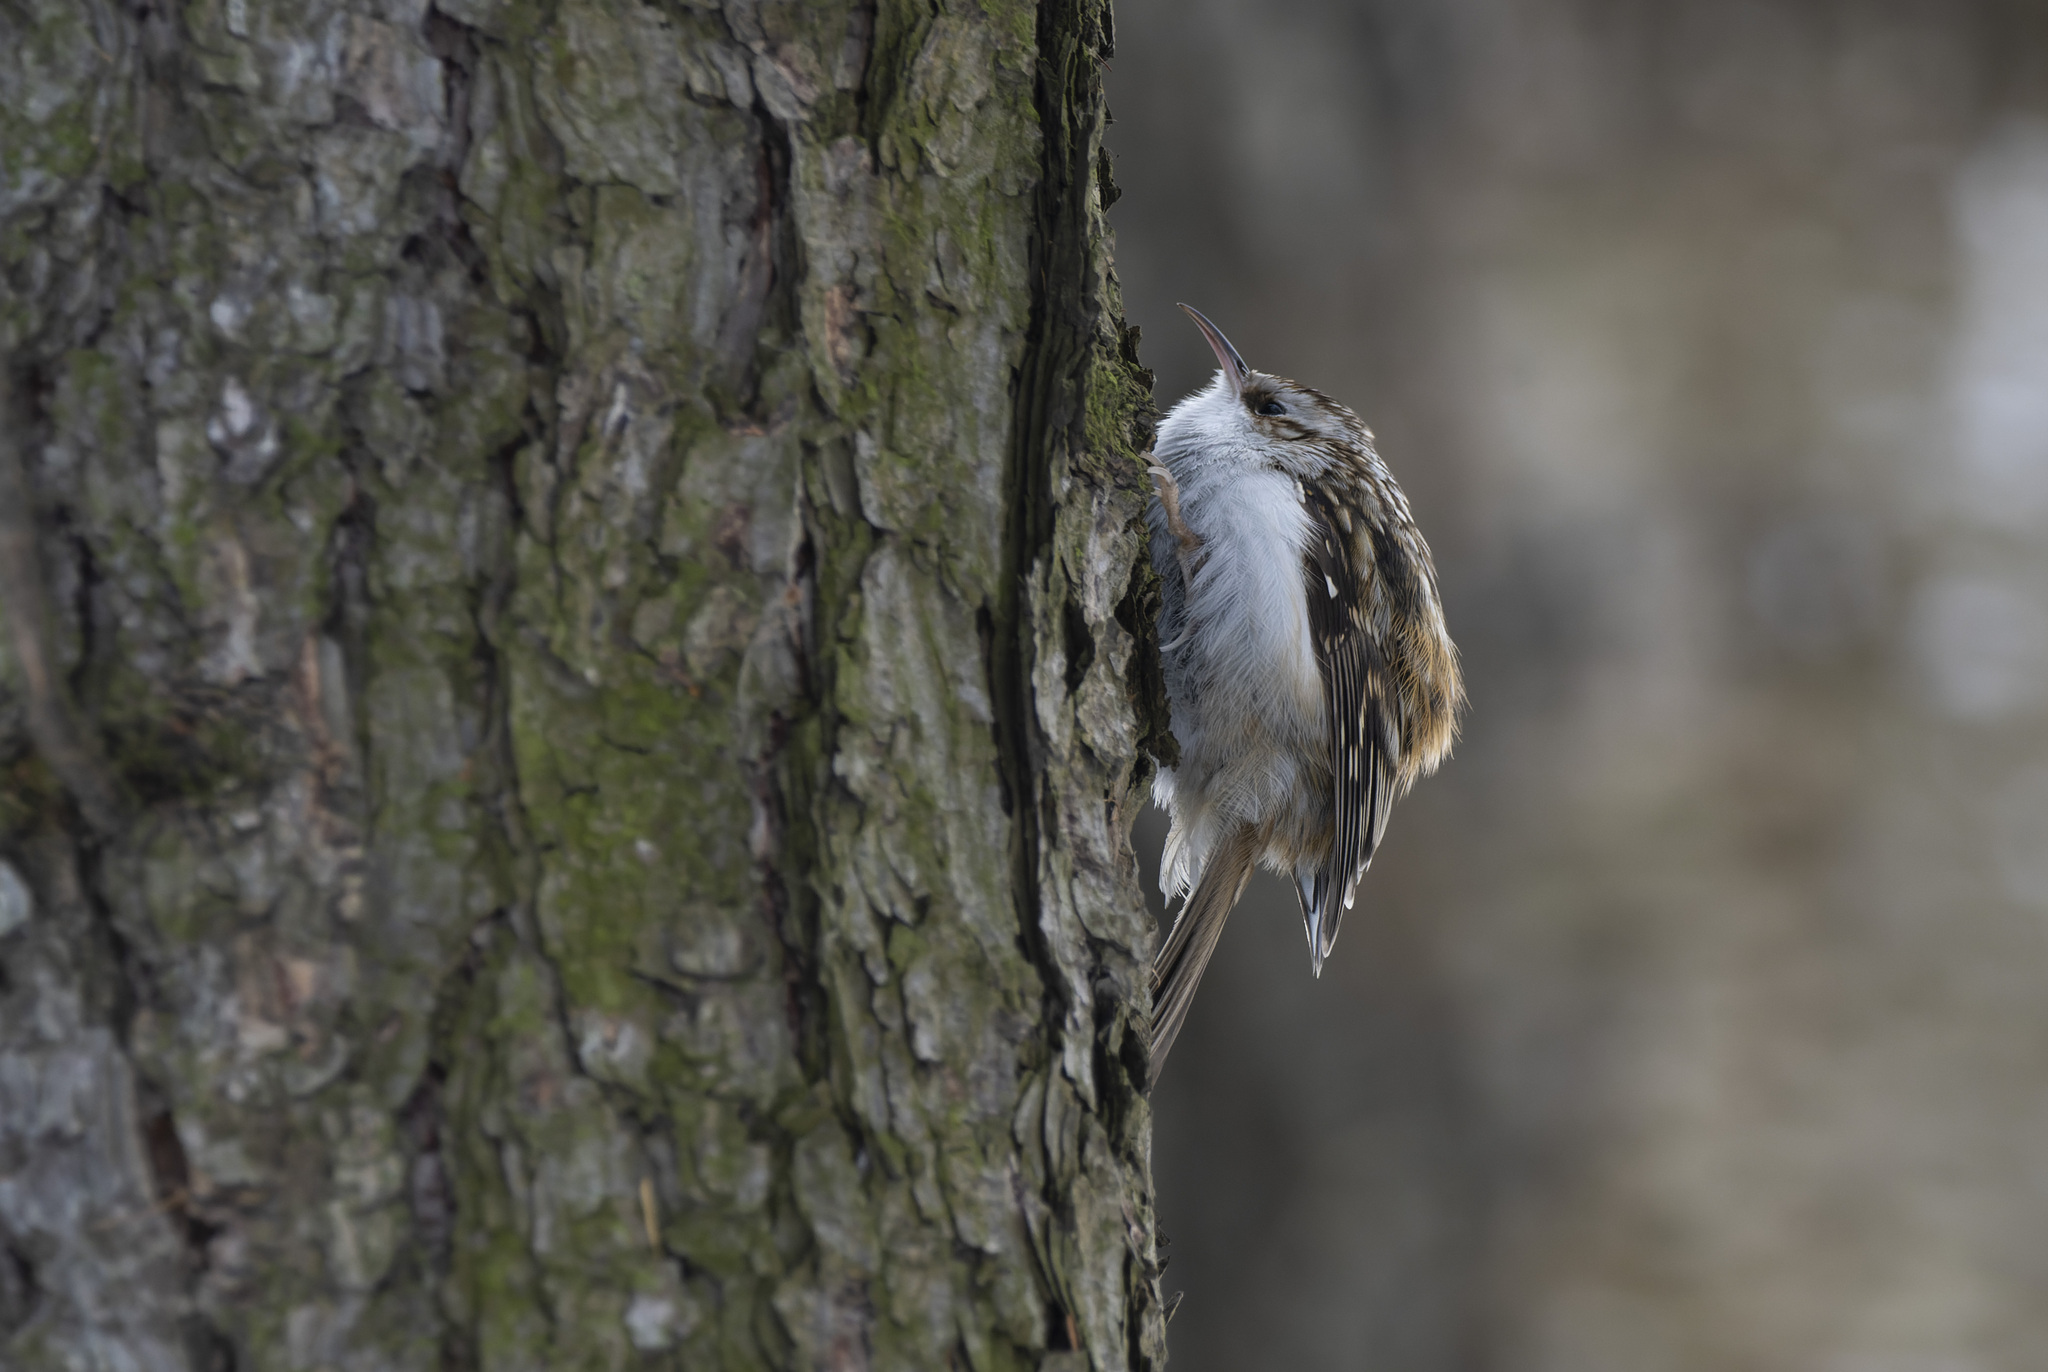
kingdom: Animalia
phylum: Chordata
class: Aves
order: Passeriformes
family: Certhiidae
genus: Certhia
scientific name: Certhia familiaris
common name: Eurasian treecreeper
